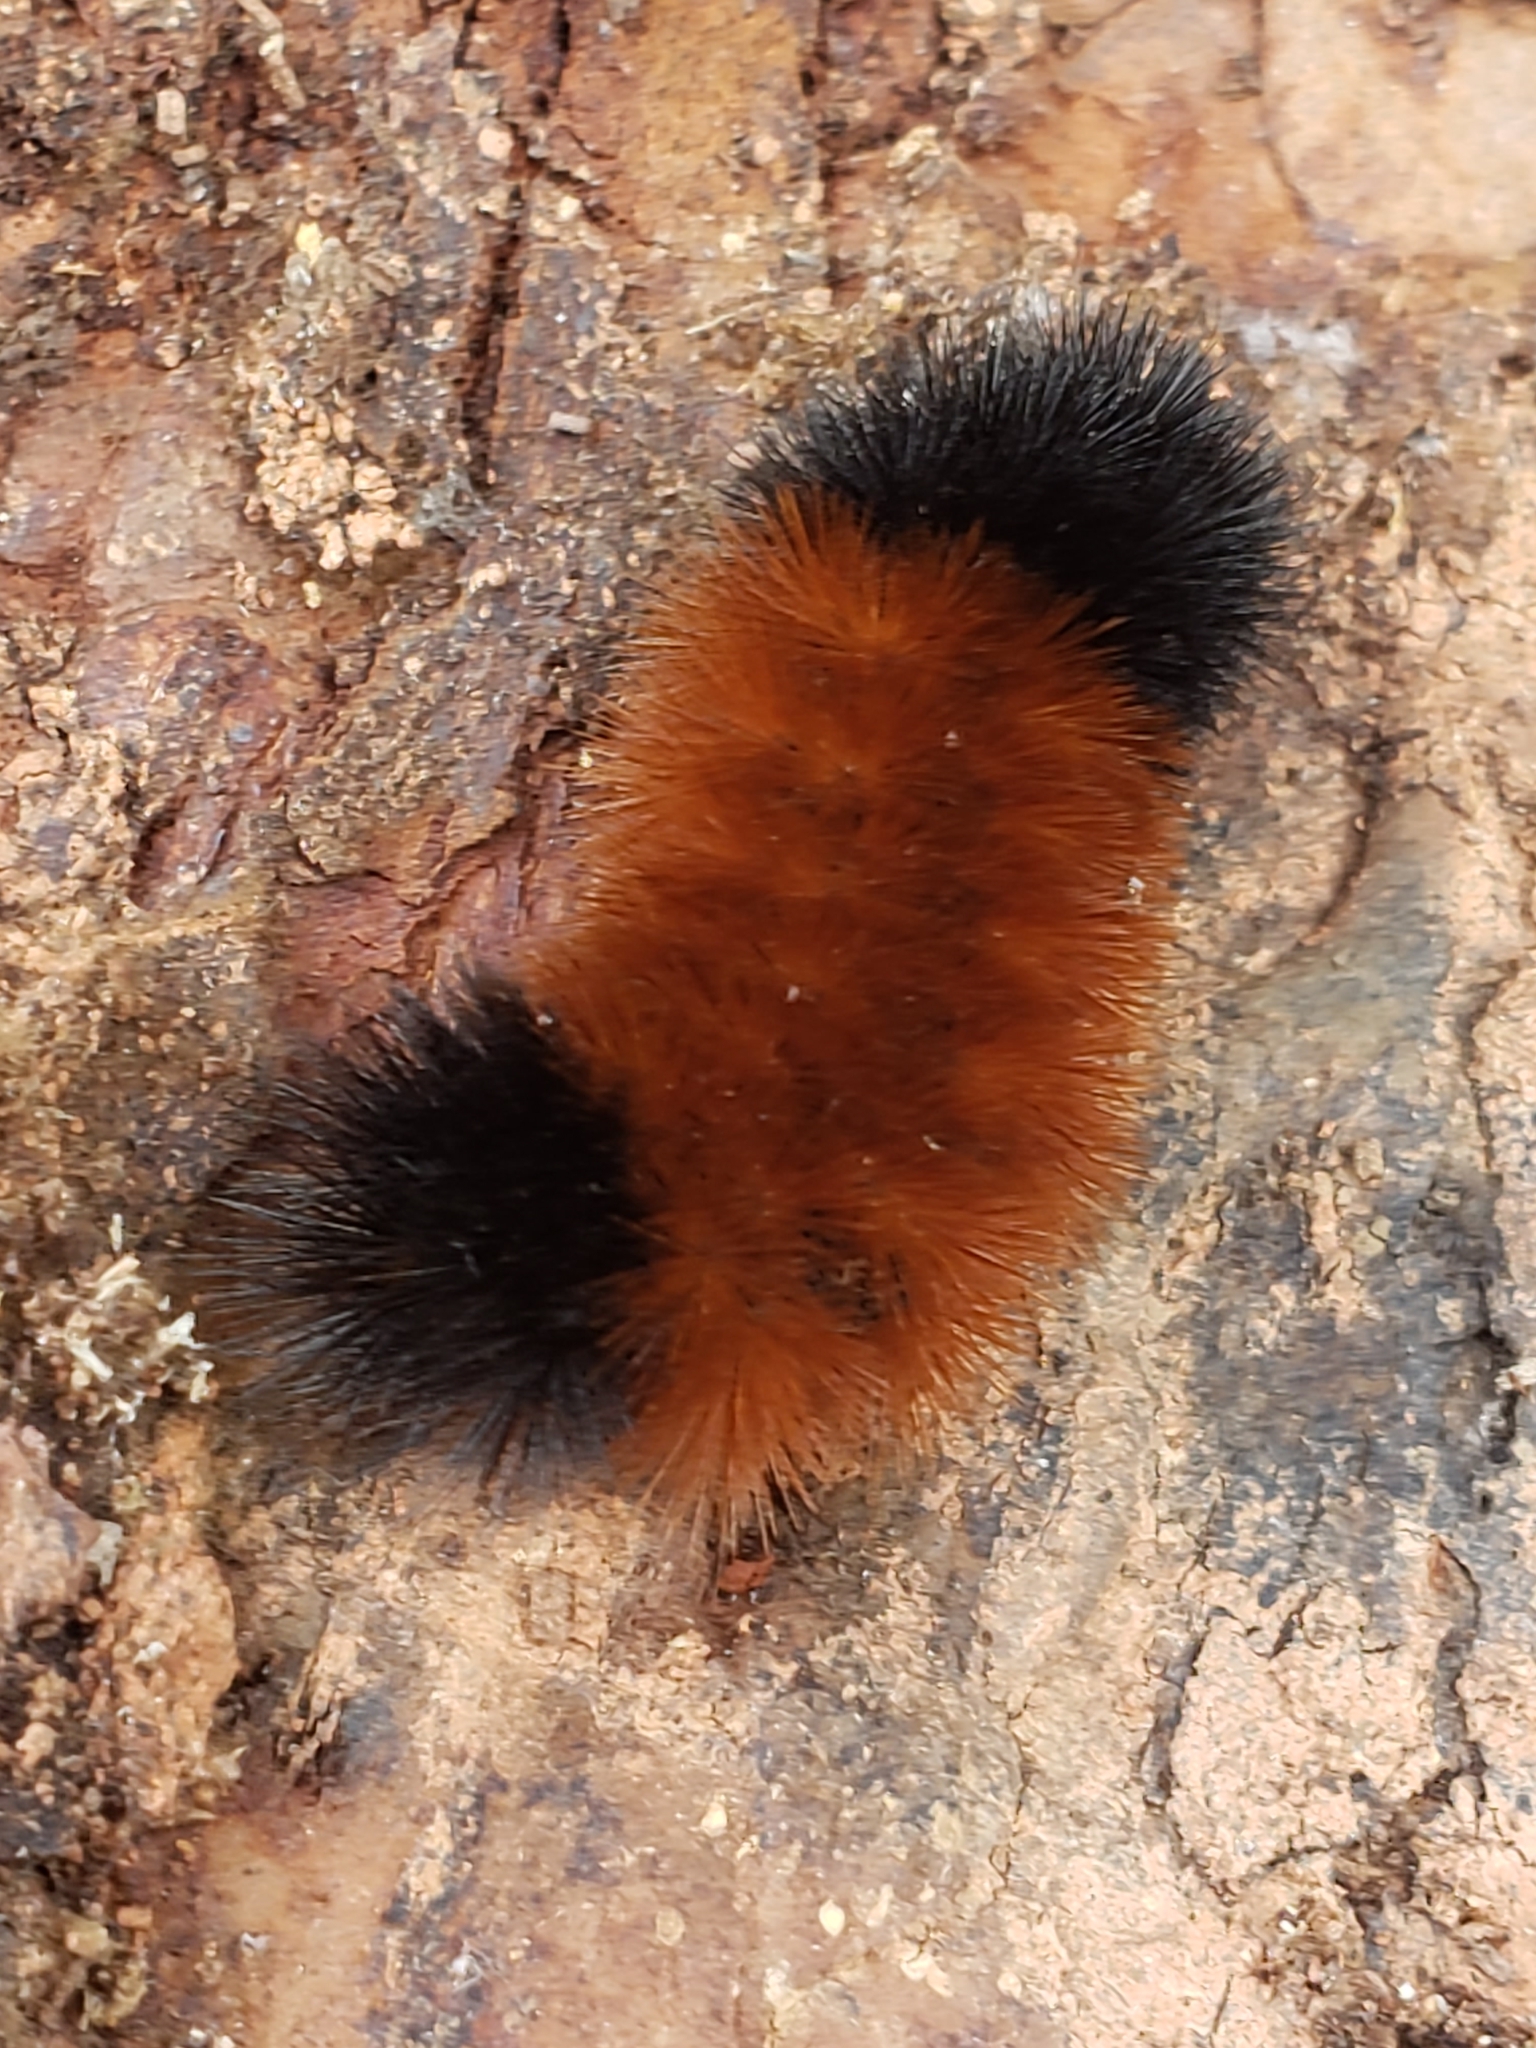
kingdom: Animalia
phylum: Arthropoda
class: Insecta
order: Lepidoptera
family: Erebidae
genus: Pyrrharctia
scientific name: Pyrrharctia isabella
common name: Isabella tiger moth
